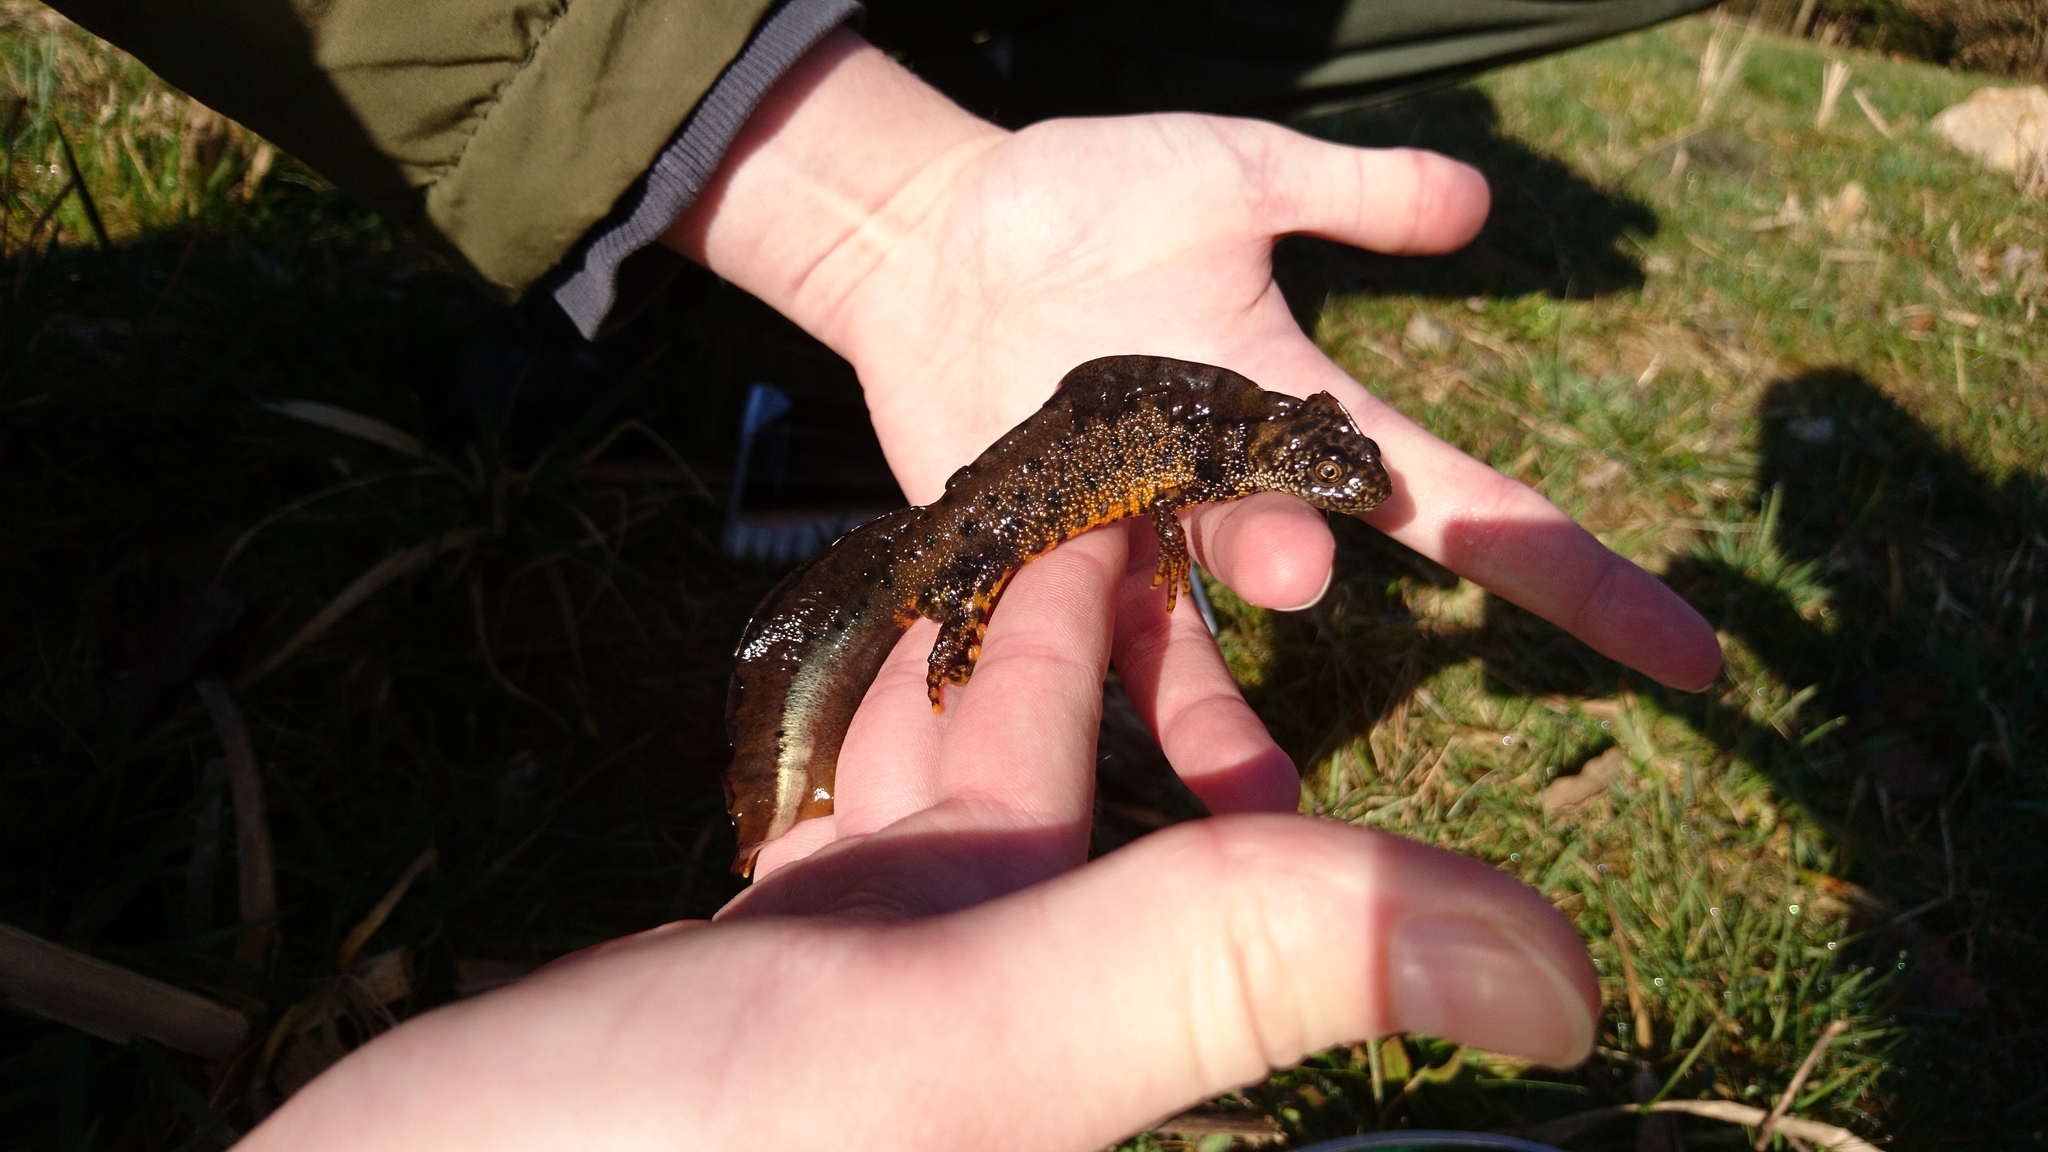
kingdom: Animalia
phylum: Chordata
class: Amphibia
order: Caudata
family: Salamandridae
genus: Triturus
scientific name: Triturus cristatus
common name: Crested newt
